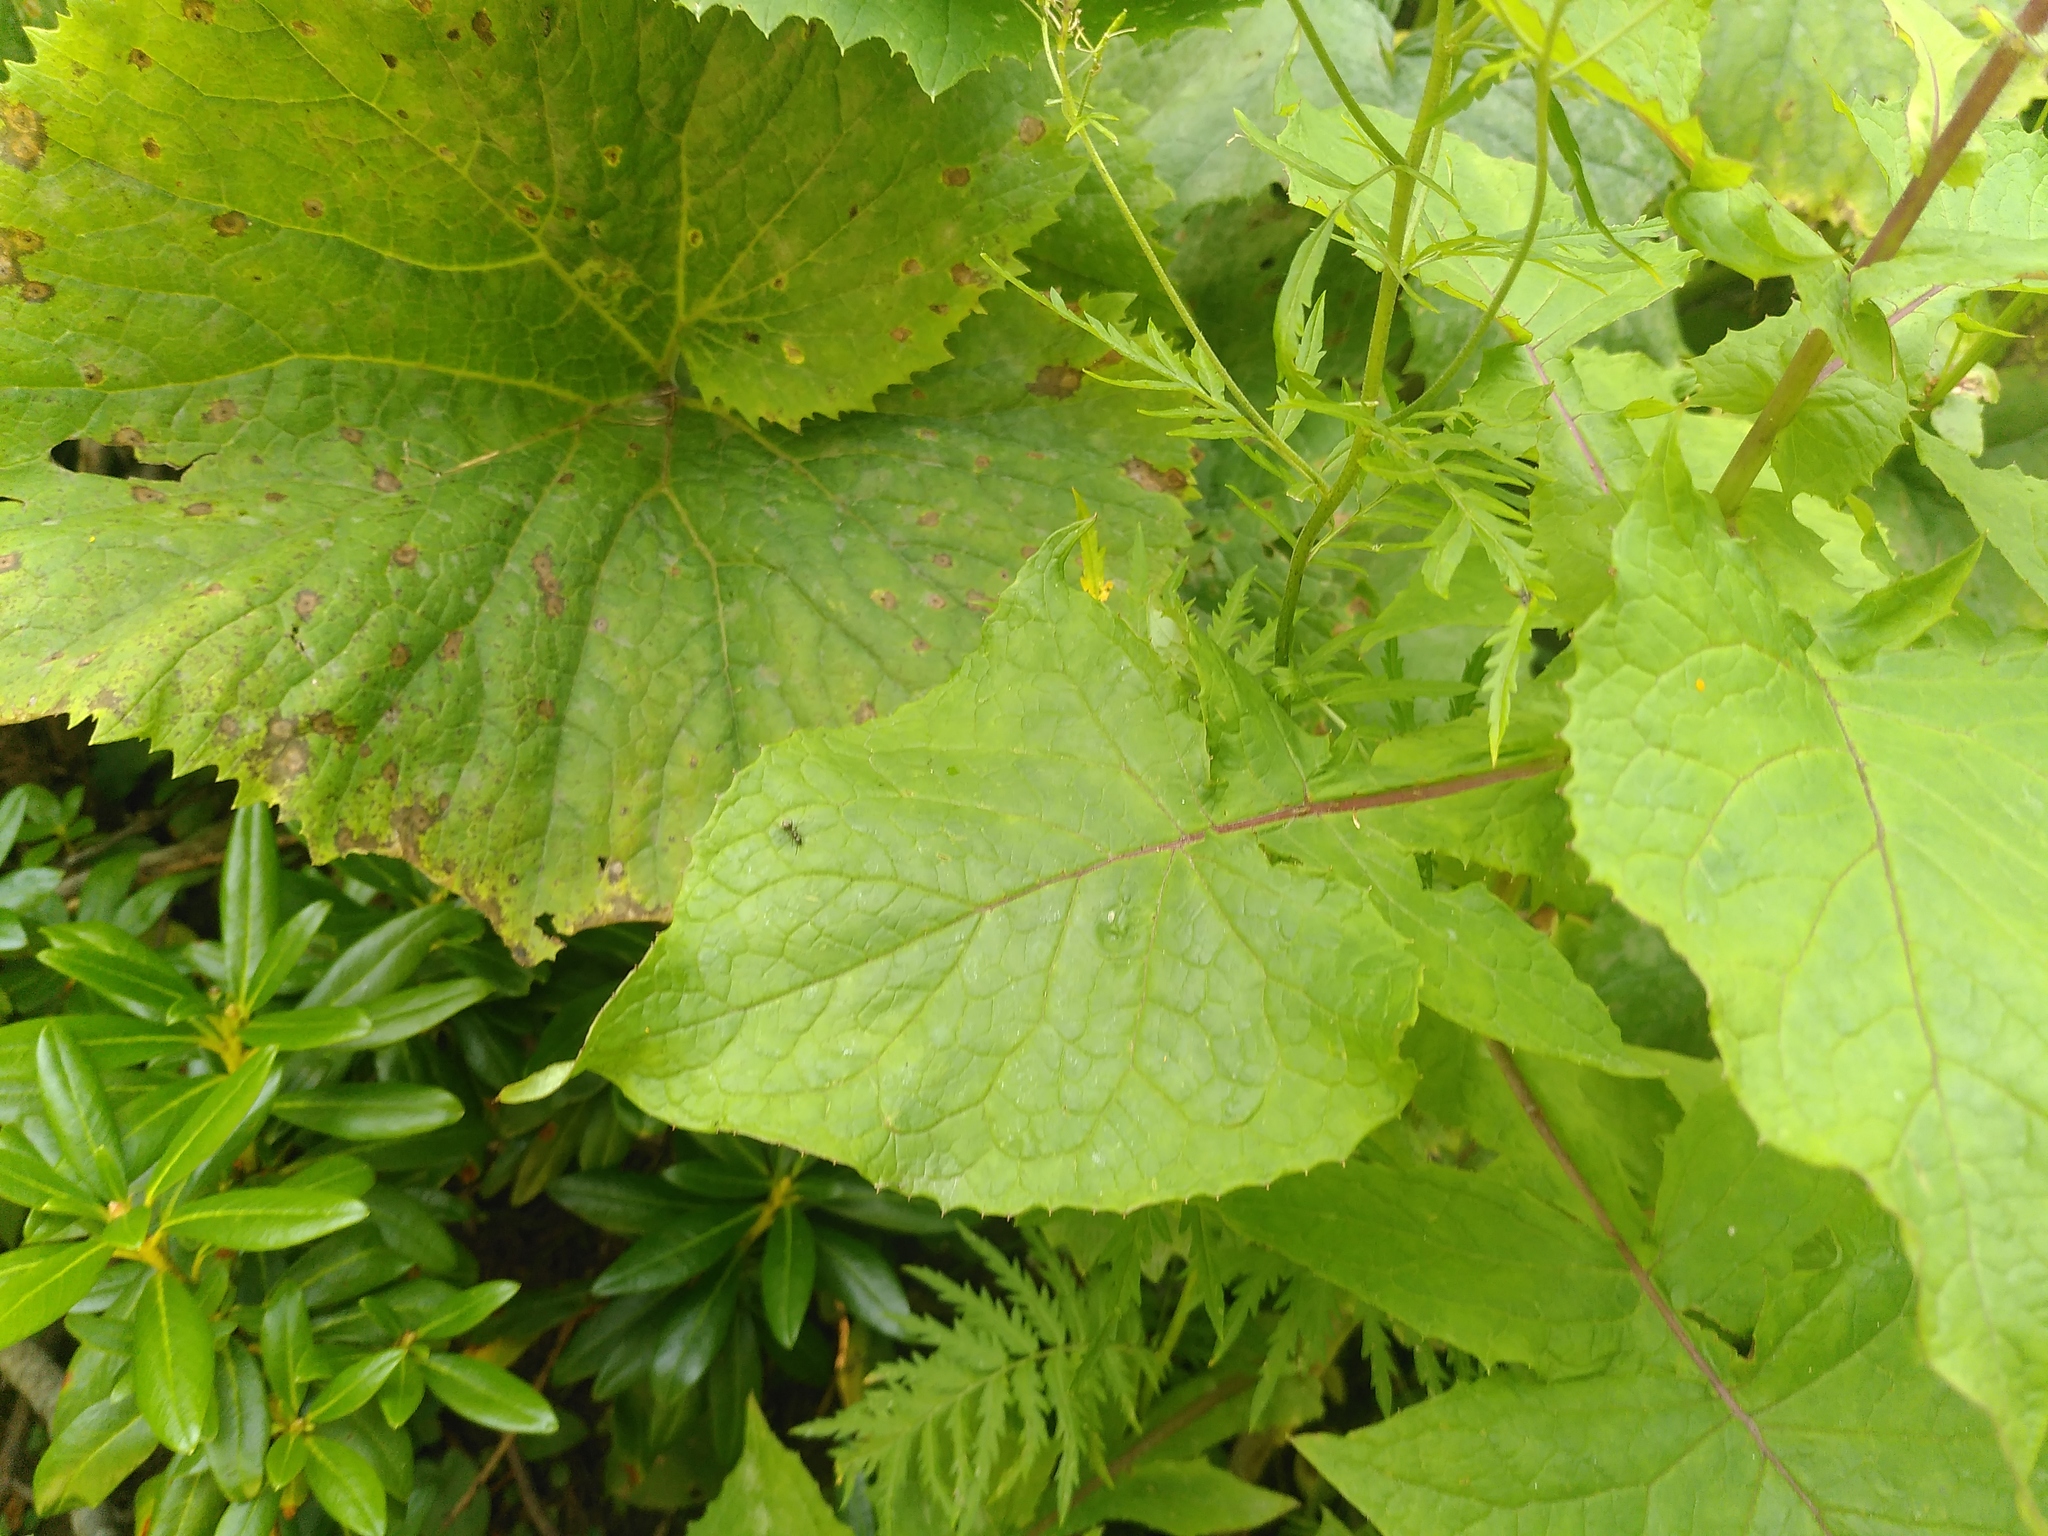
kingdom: Plantae
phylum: Tracheophyta
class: Magnoliopsida
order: Asterales
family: Asteraceae
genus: Cicerbita
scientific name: Cicerbita alpina
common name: Alpine blue-sow-thistle
